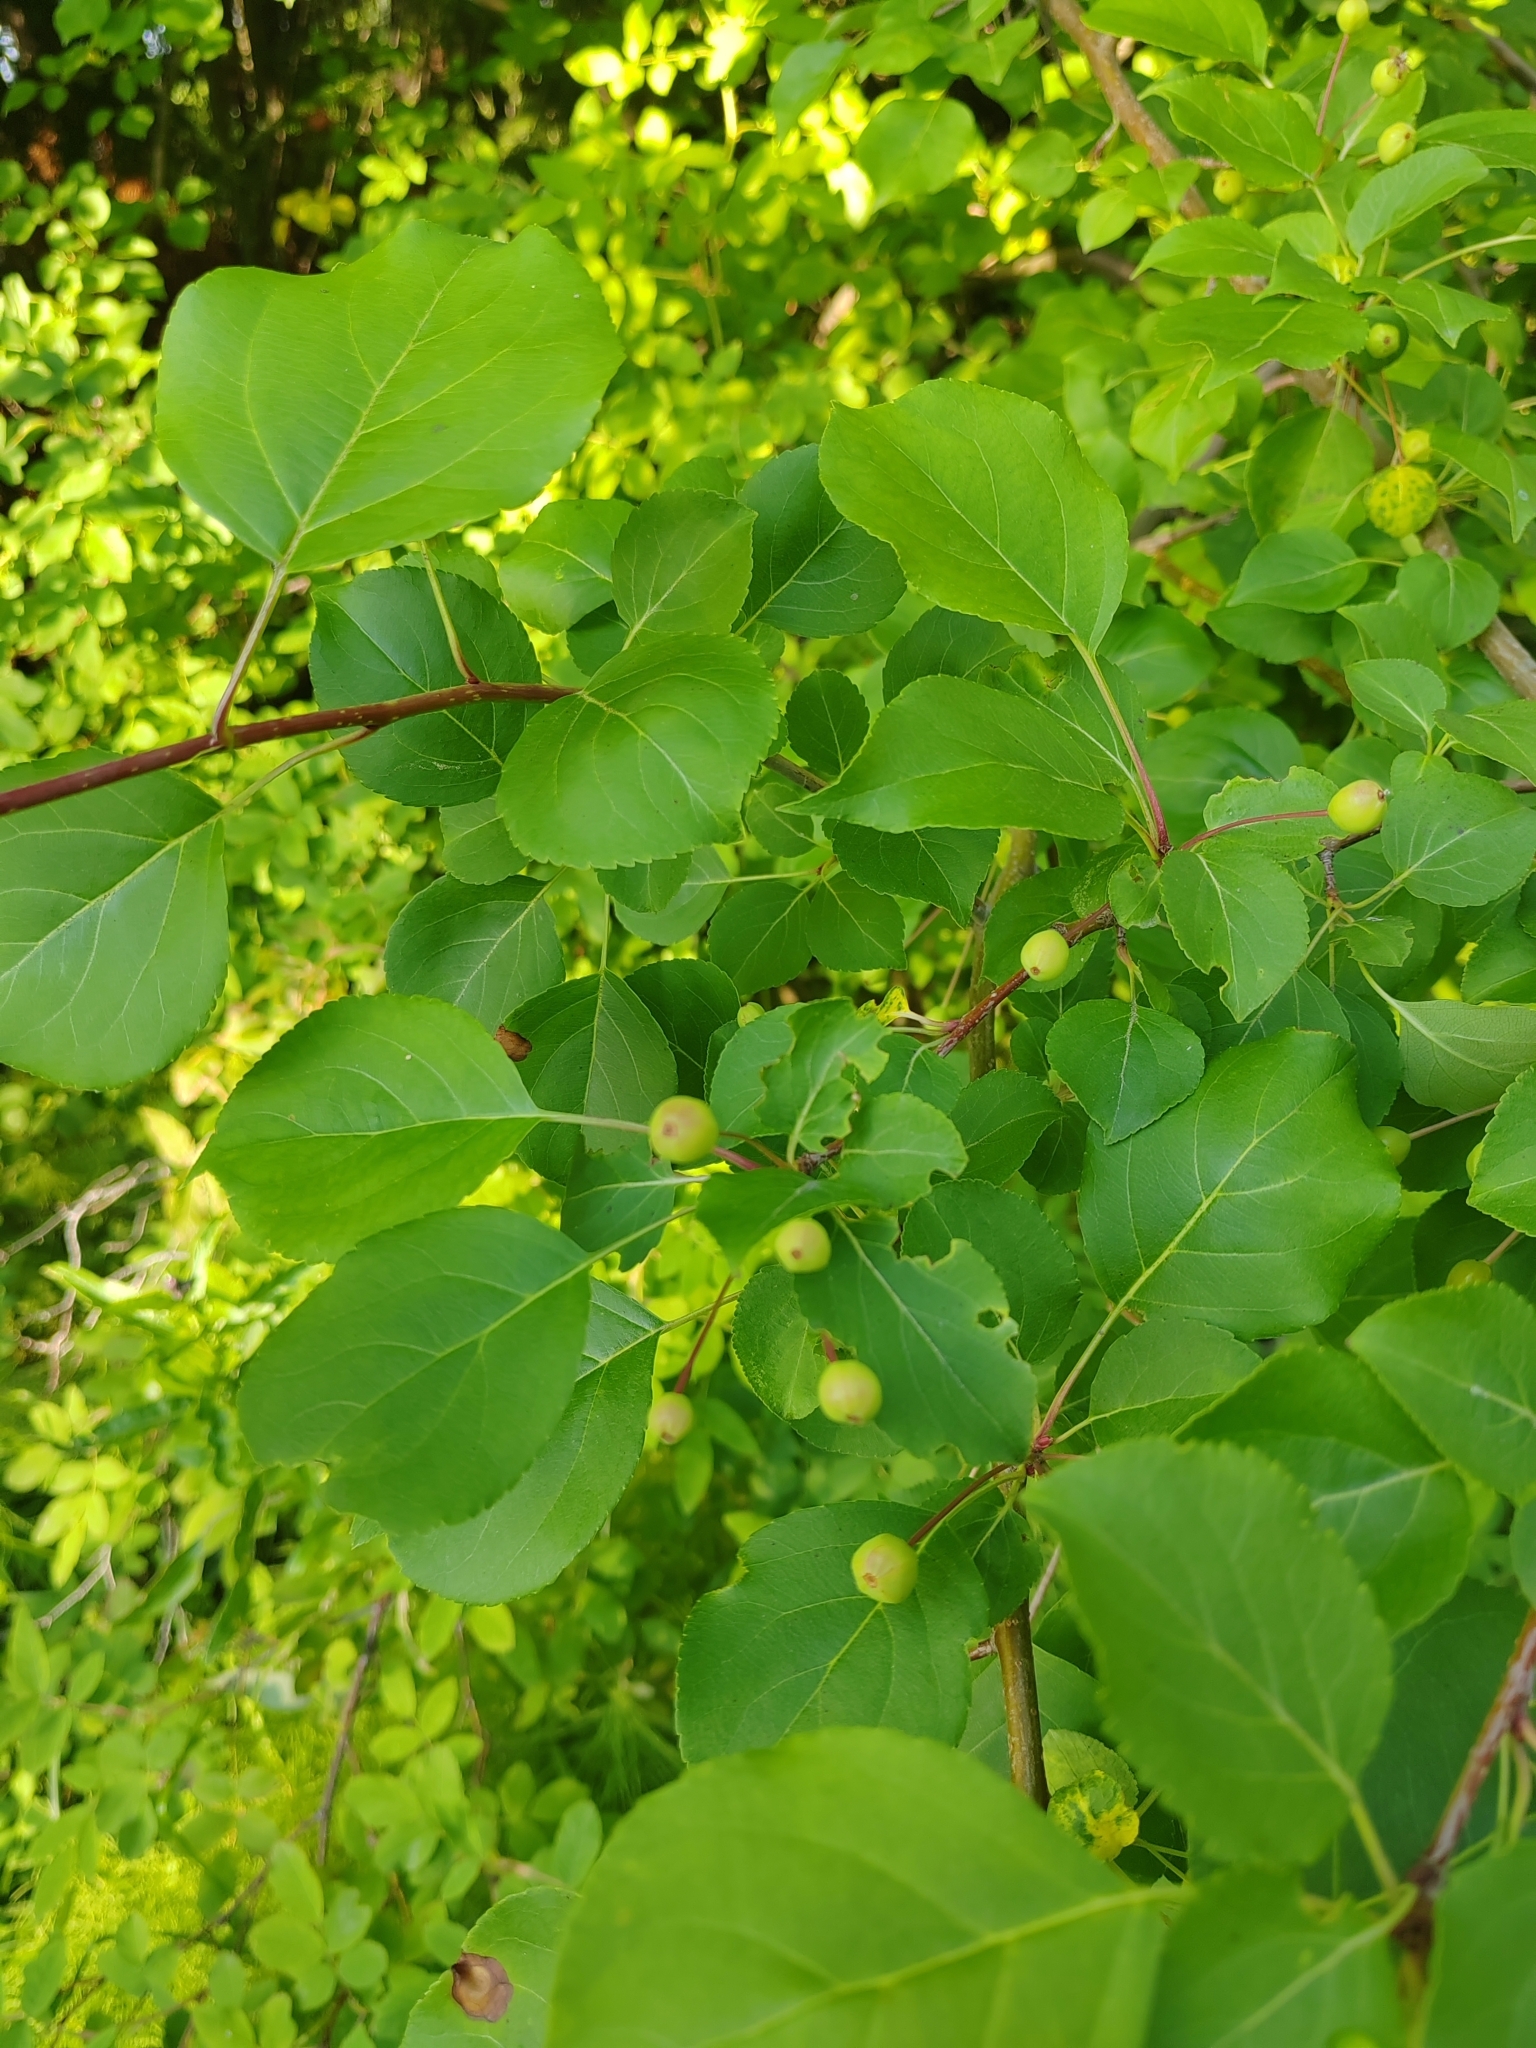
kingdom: Plantae
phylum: Tracheophyta
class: Magnoliopsida
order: Rosales
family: Rosaceae
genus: Malus
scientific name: Malus baccata
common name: Siberian crab
